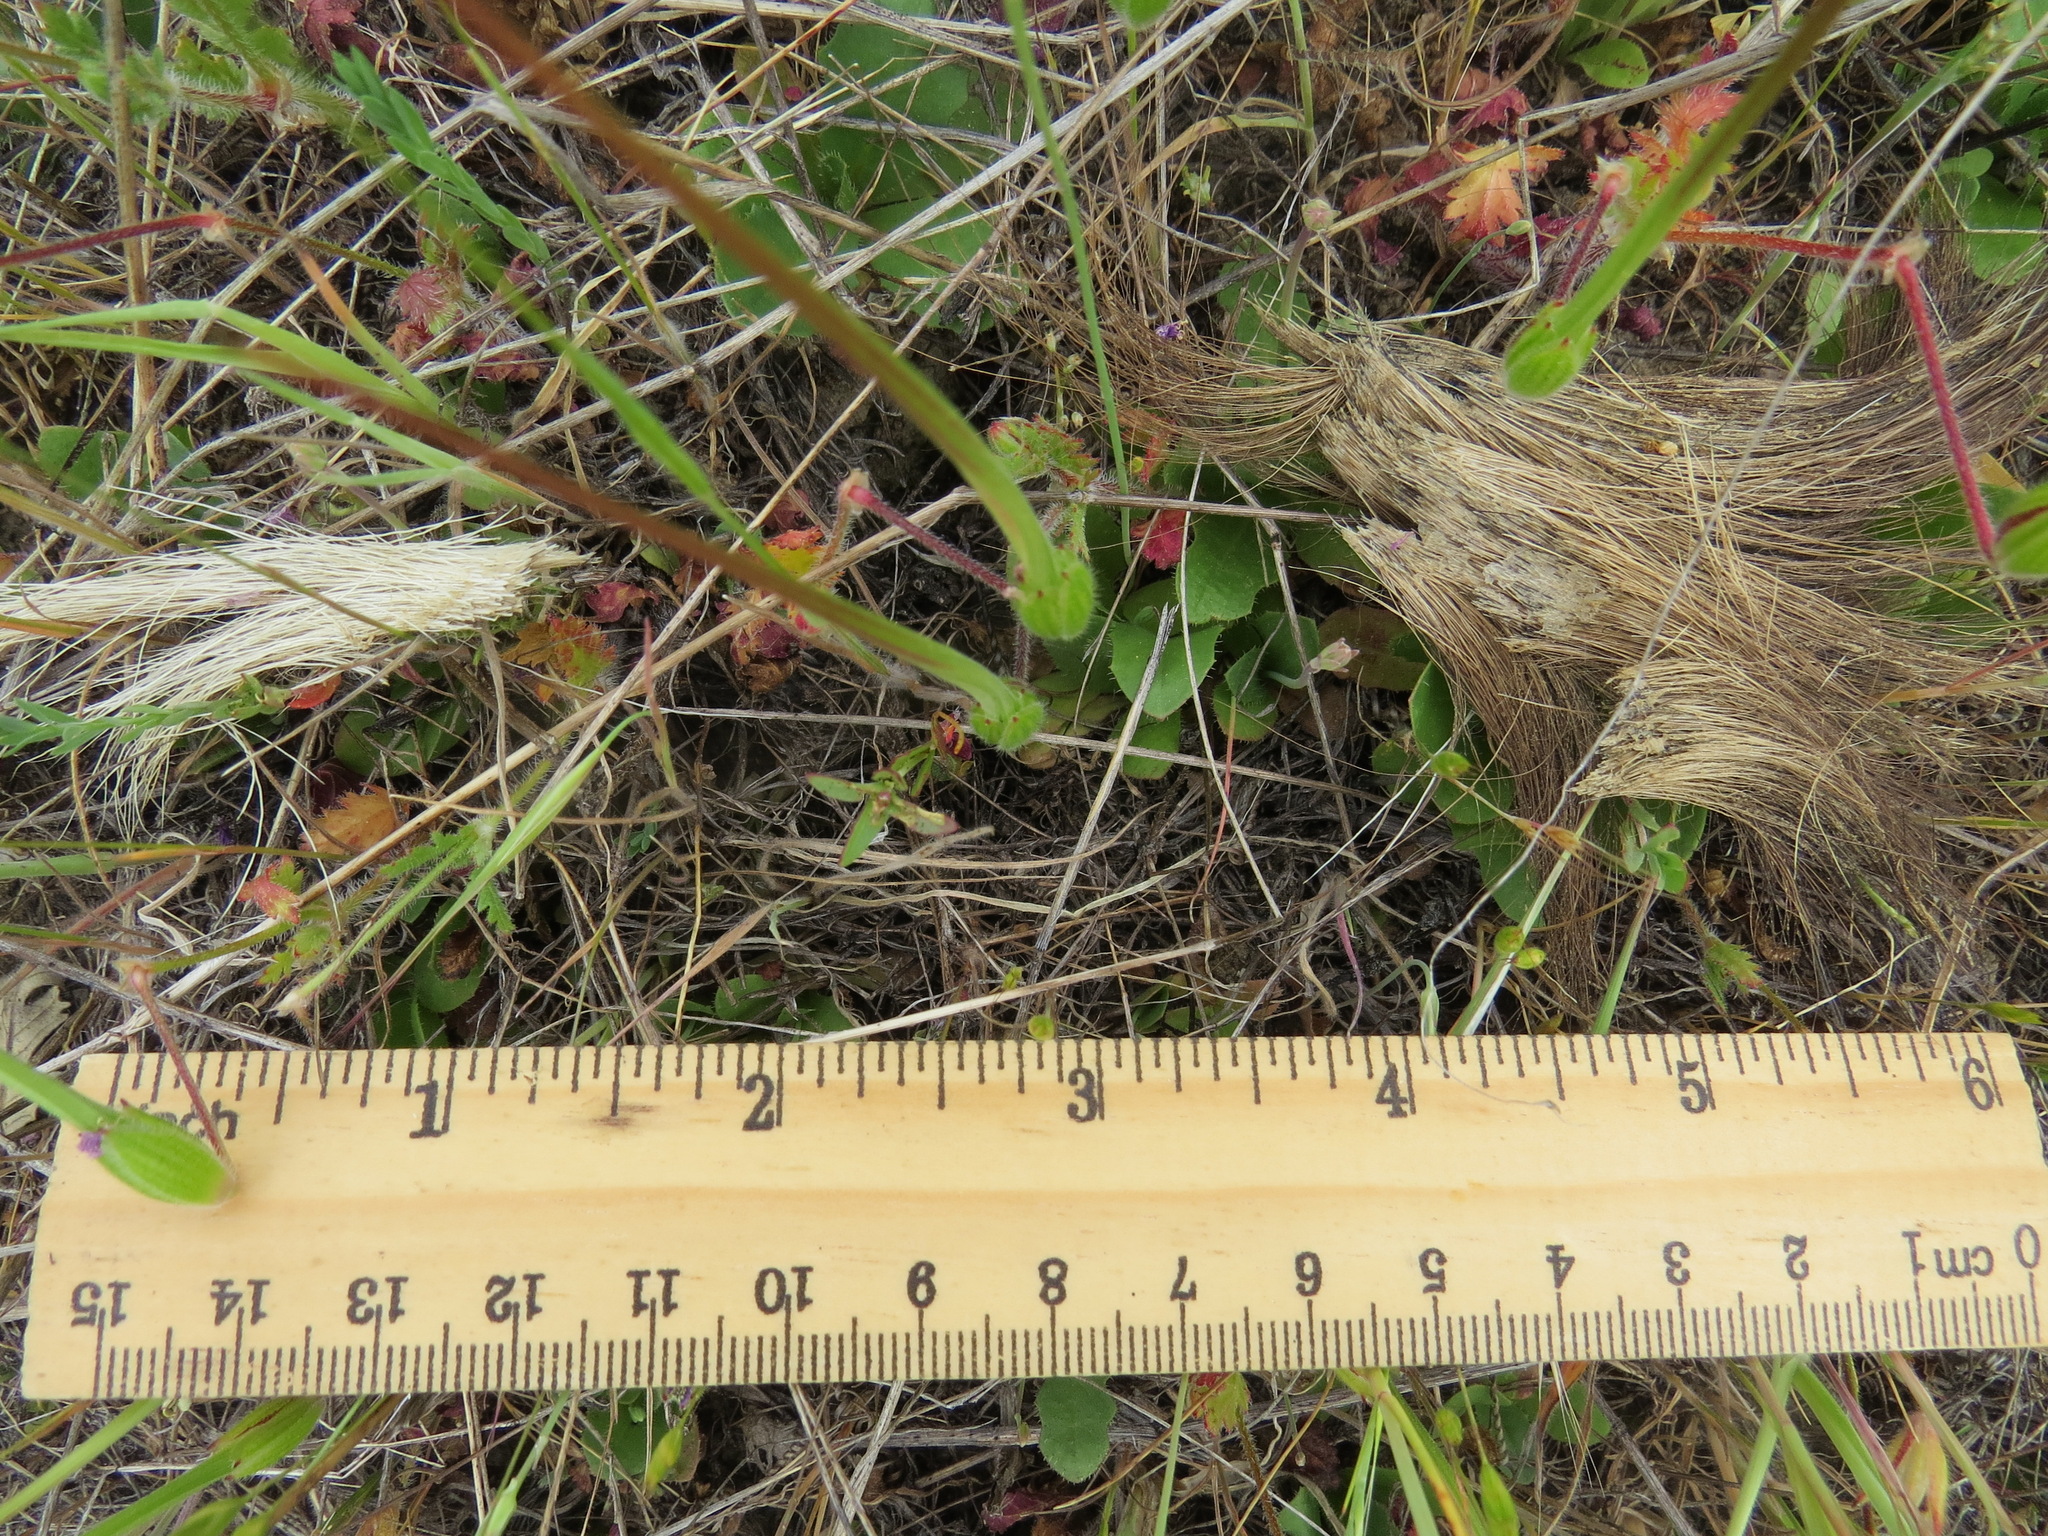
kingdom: Animalia
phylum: Chordata
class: Mammalia
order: Artiodactyla
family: Cervidae
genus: Odocoileus
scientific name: Odocoileus hemionus
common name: Mule deer
